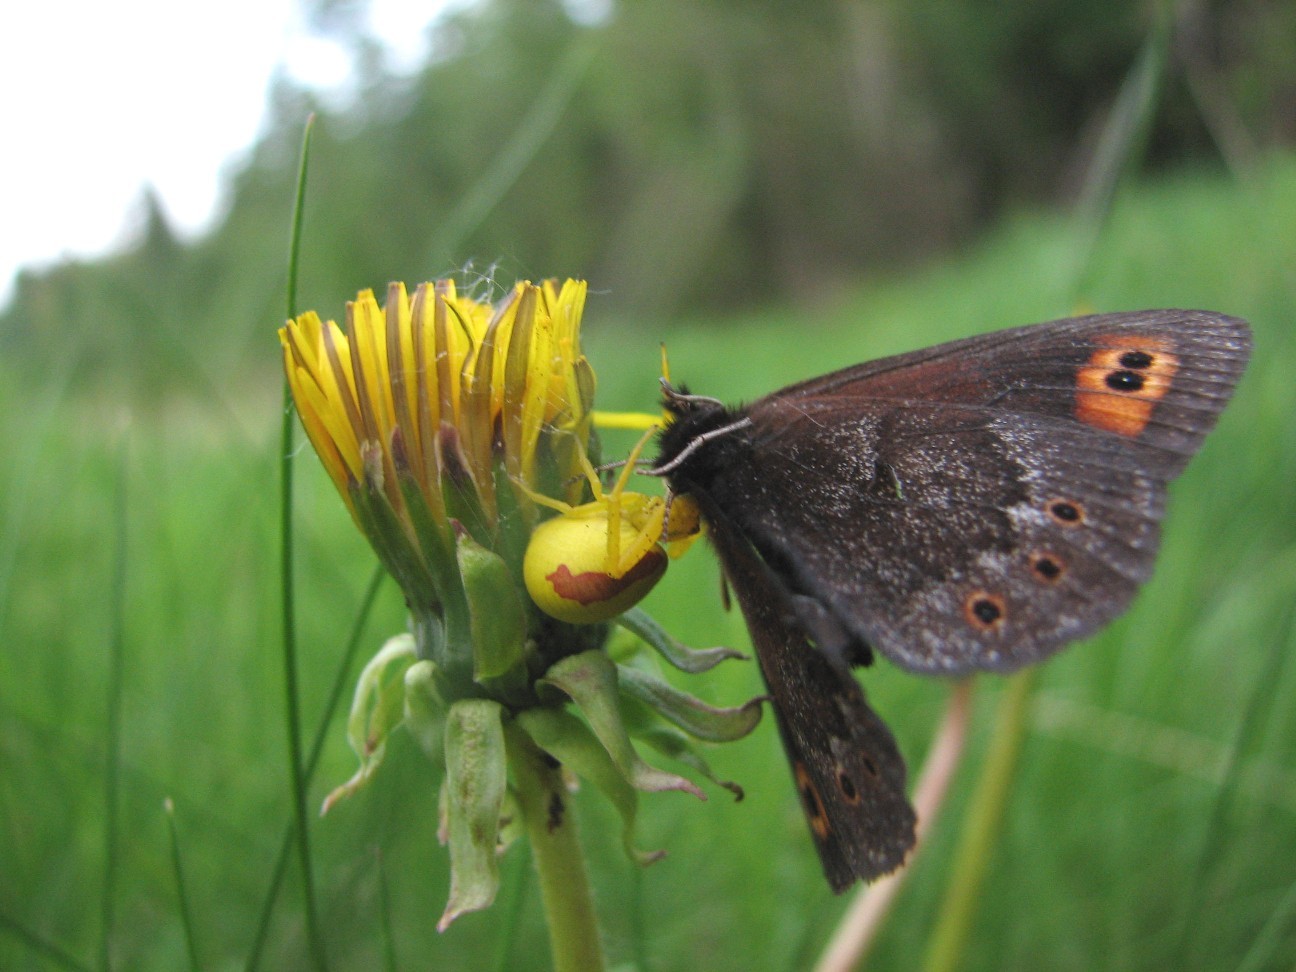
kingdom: Animalia
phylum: Arthropoda
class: Insecta
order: Lepidoptera
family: Nymphalidae
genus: Erebia
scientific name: Erebia epipsodea
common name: Common alpine
